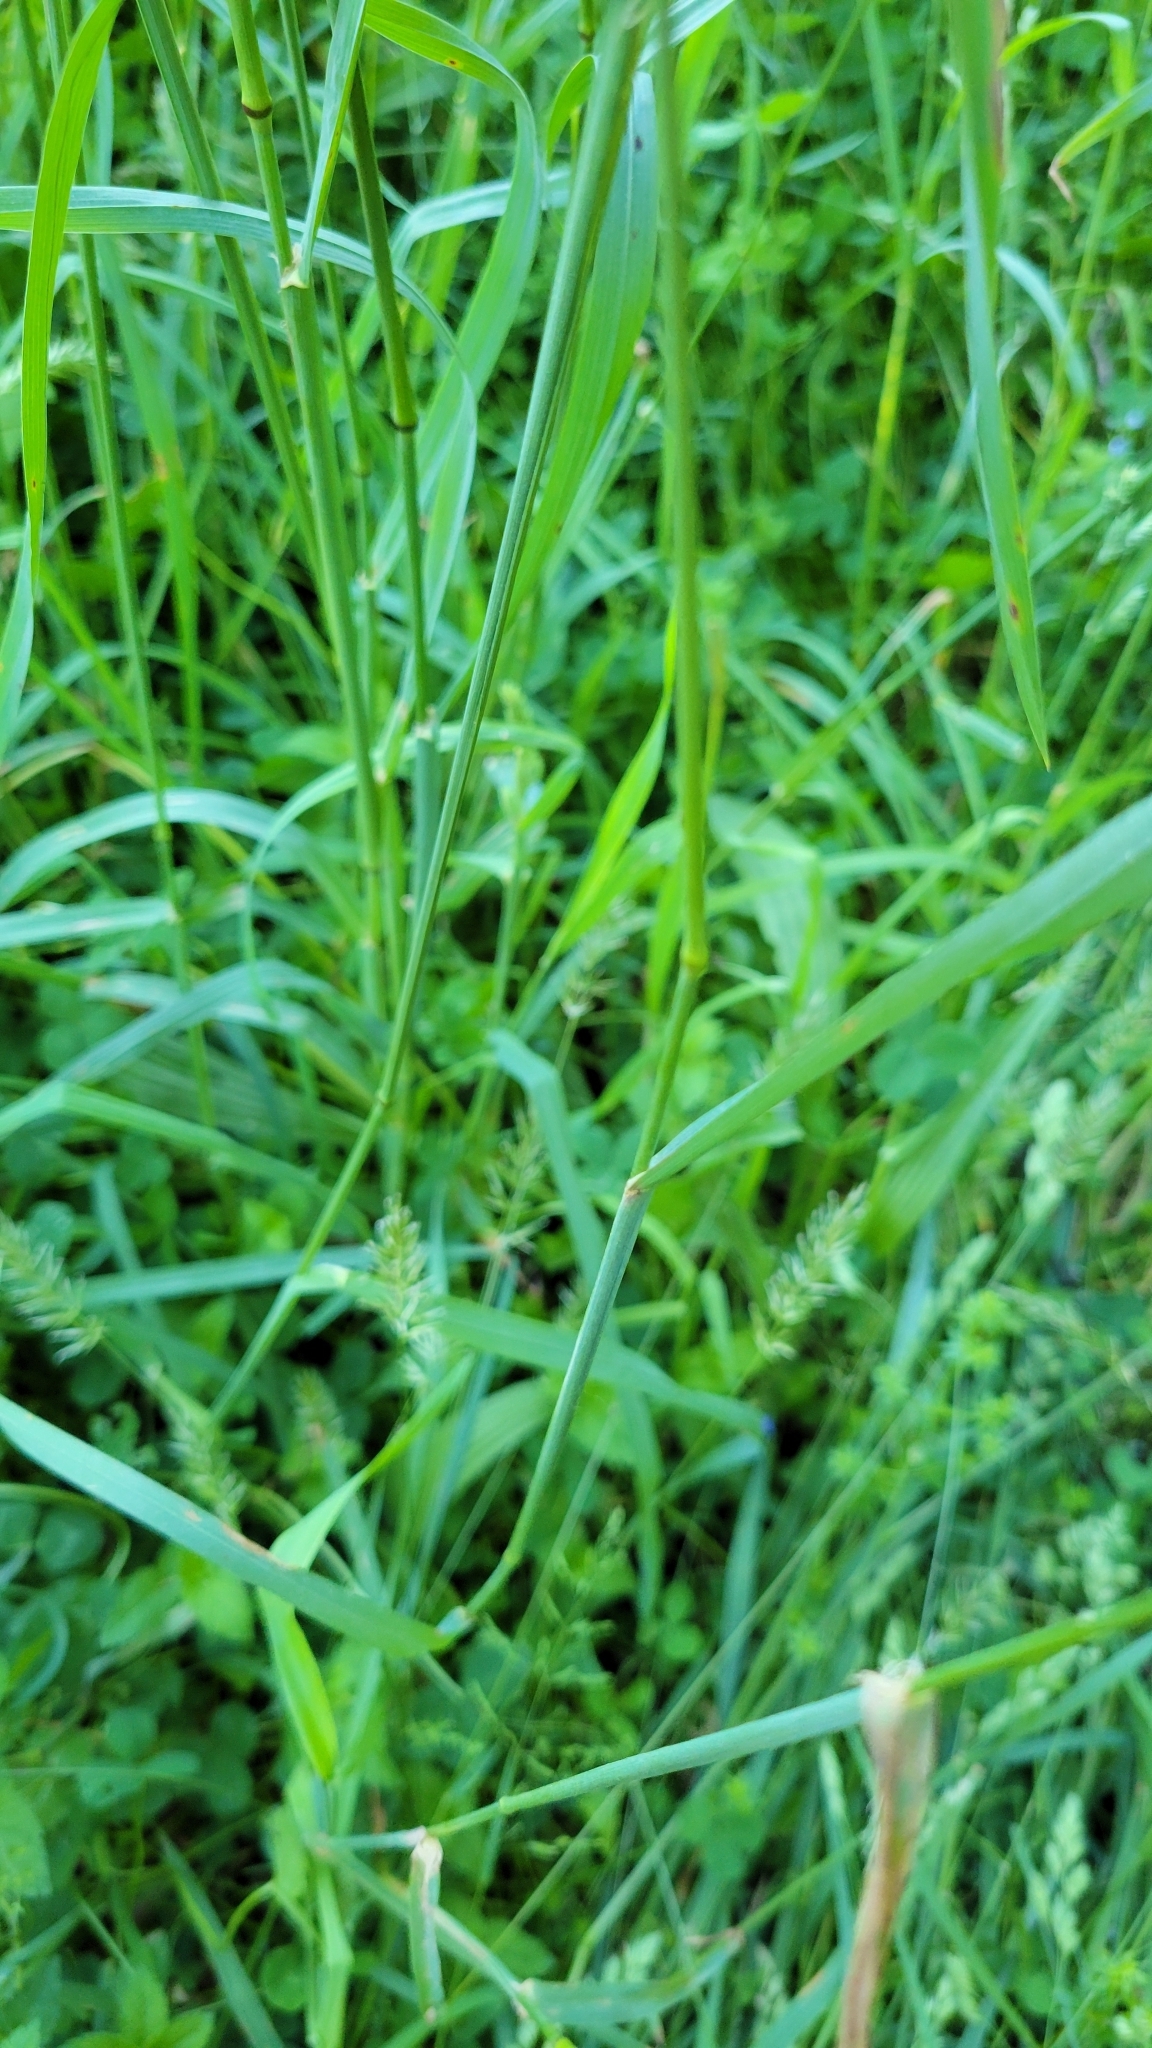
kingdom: Plantae
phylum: Tracheophyta
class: Liliopsida
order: Poales
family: Poaceae
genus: Dactylis
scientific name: Dactylis glomerata
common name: Orchardgrass
